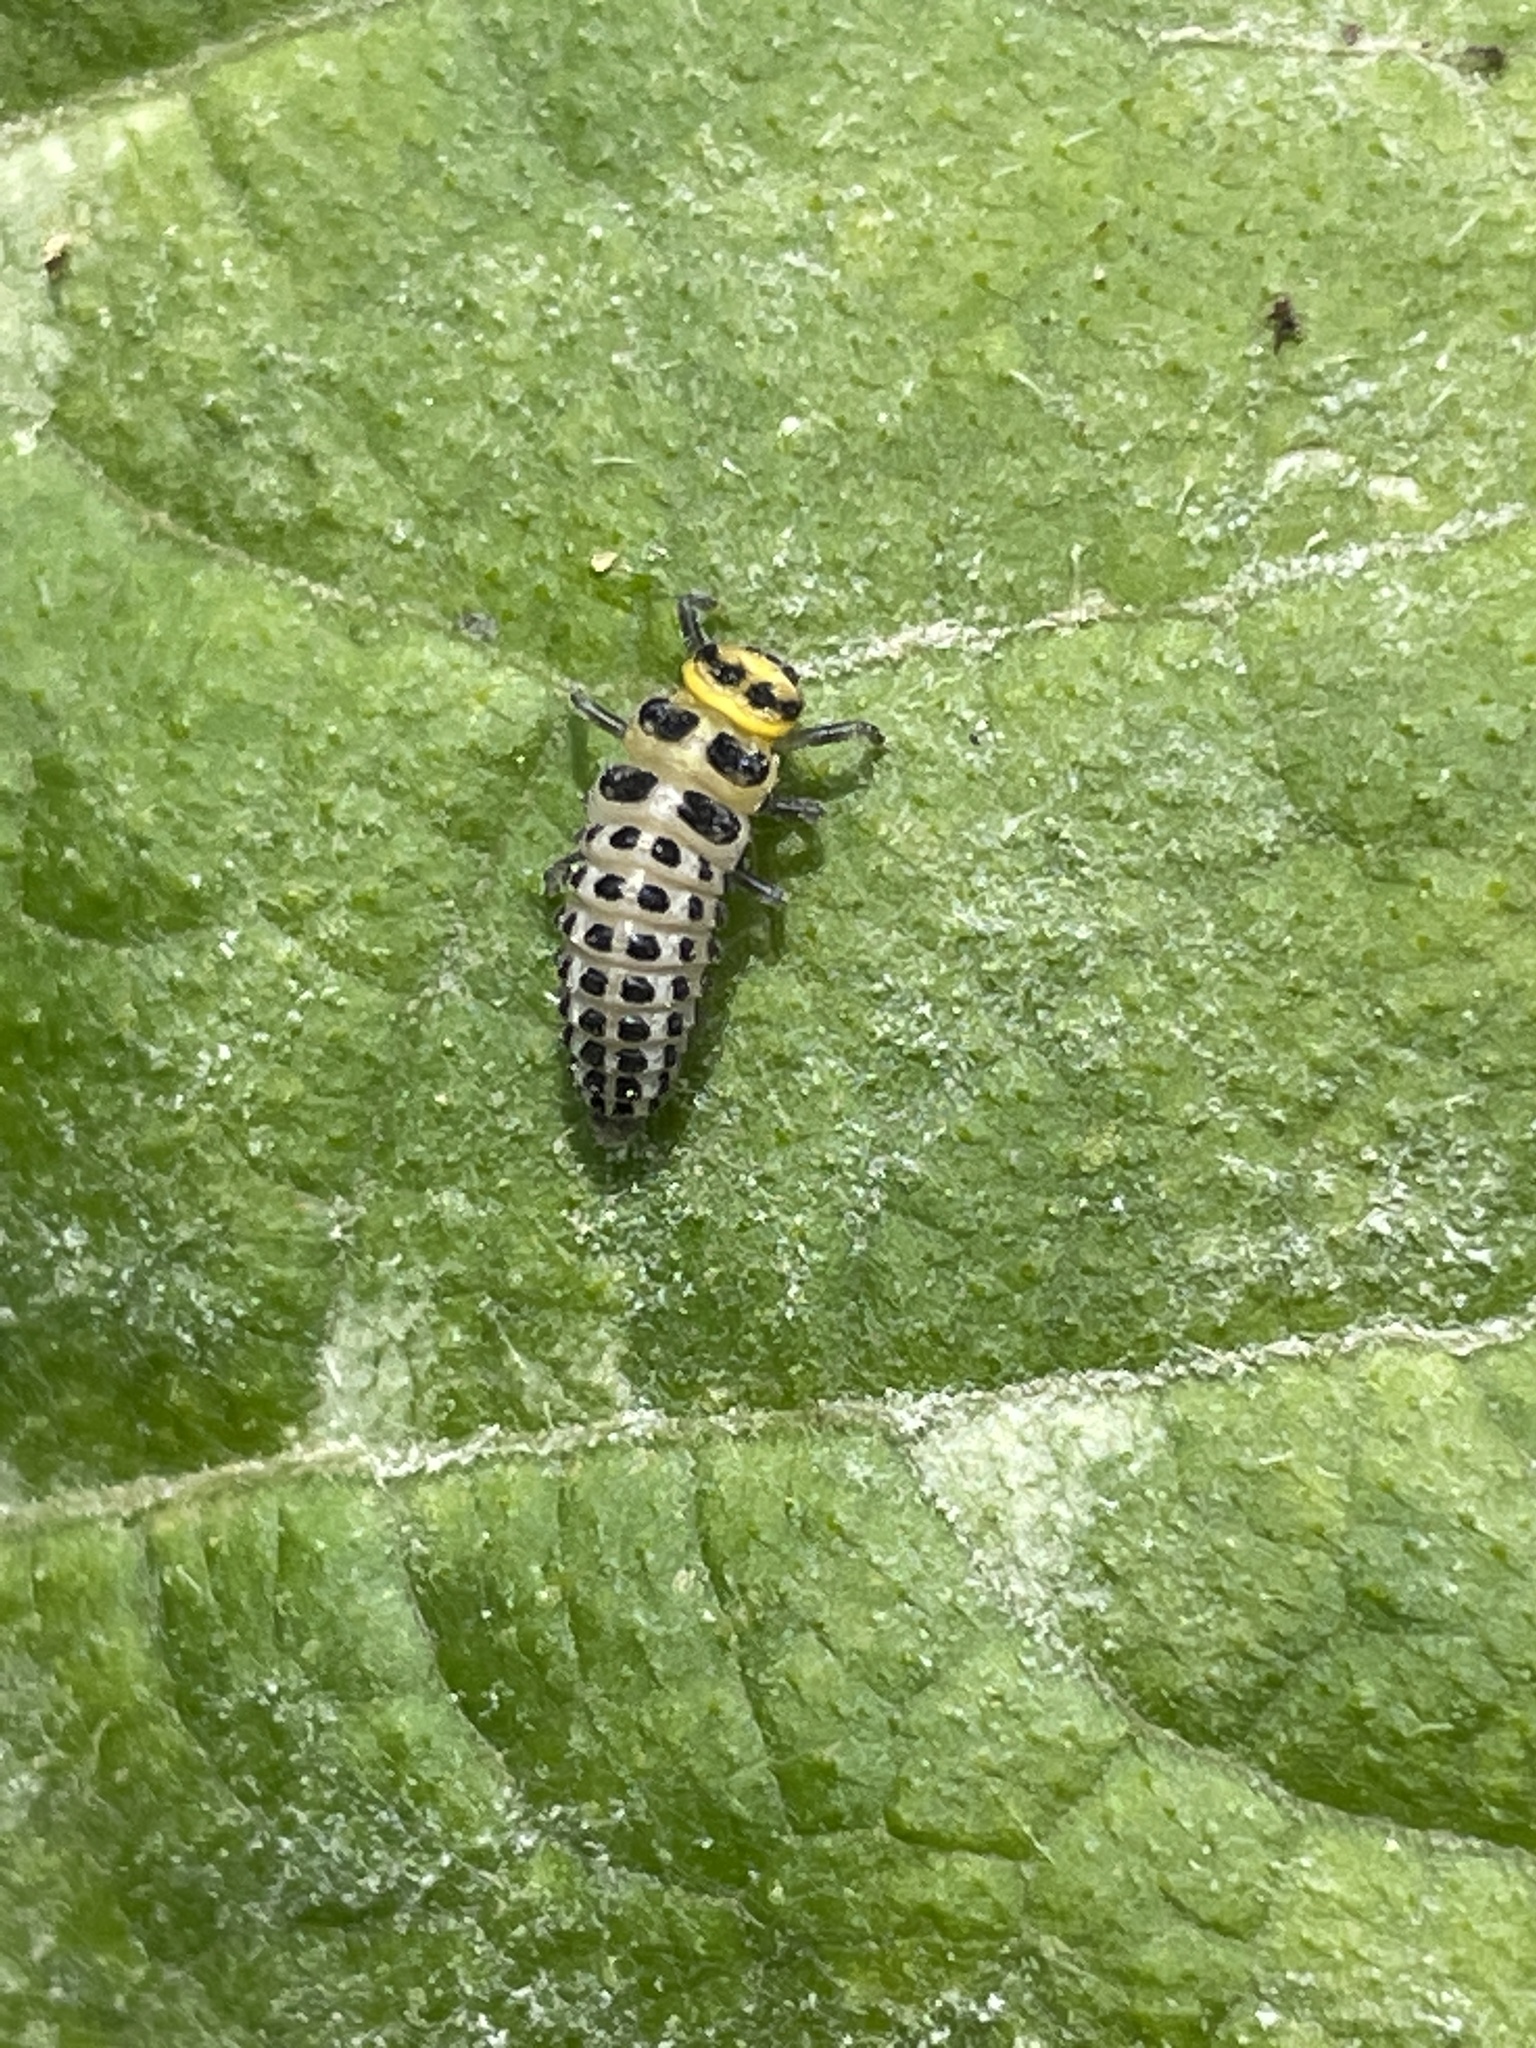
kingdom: Animalia
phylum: Arthropoda
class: Insecta
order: Coleoptera
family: Coccinellidae
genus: Illeis
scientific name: Illeis galbula
